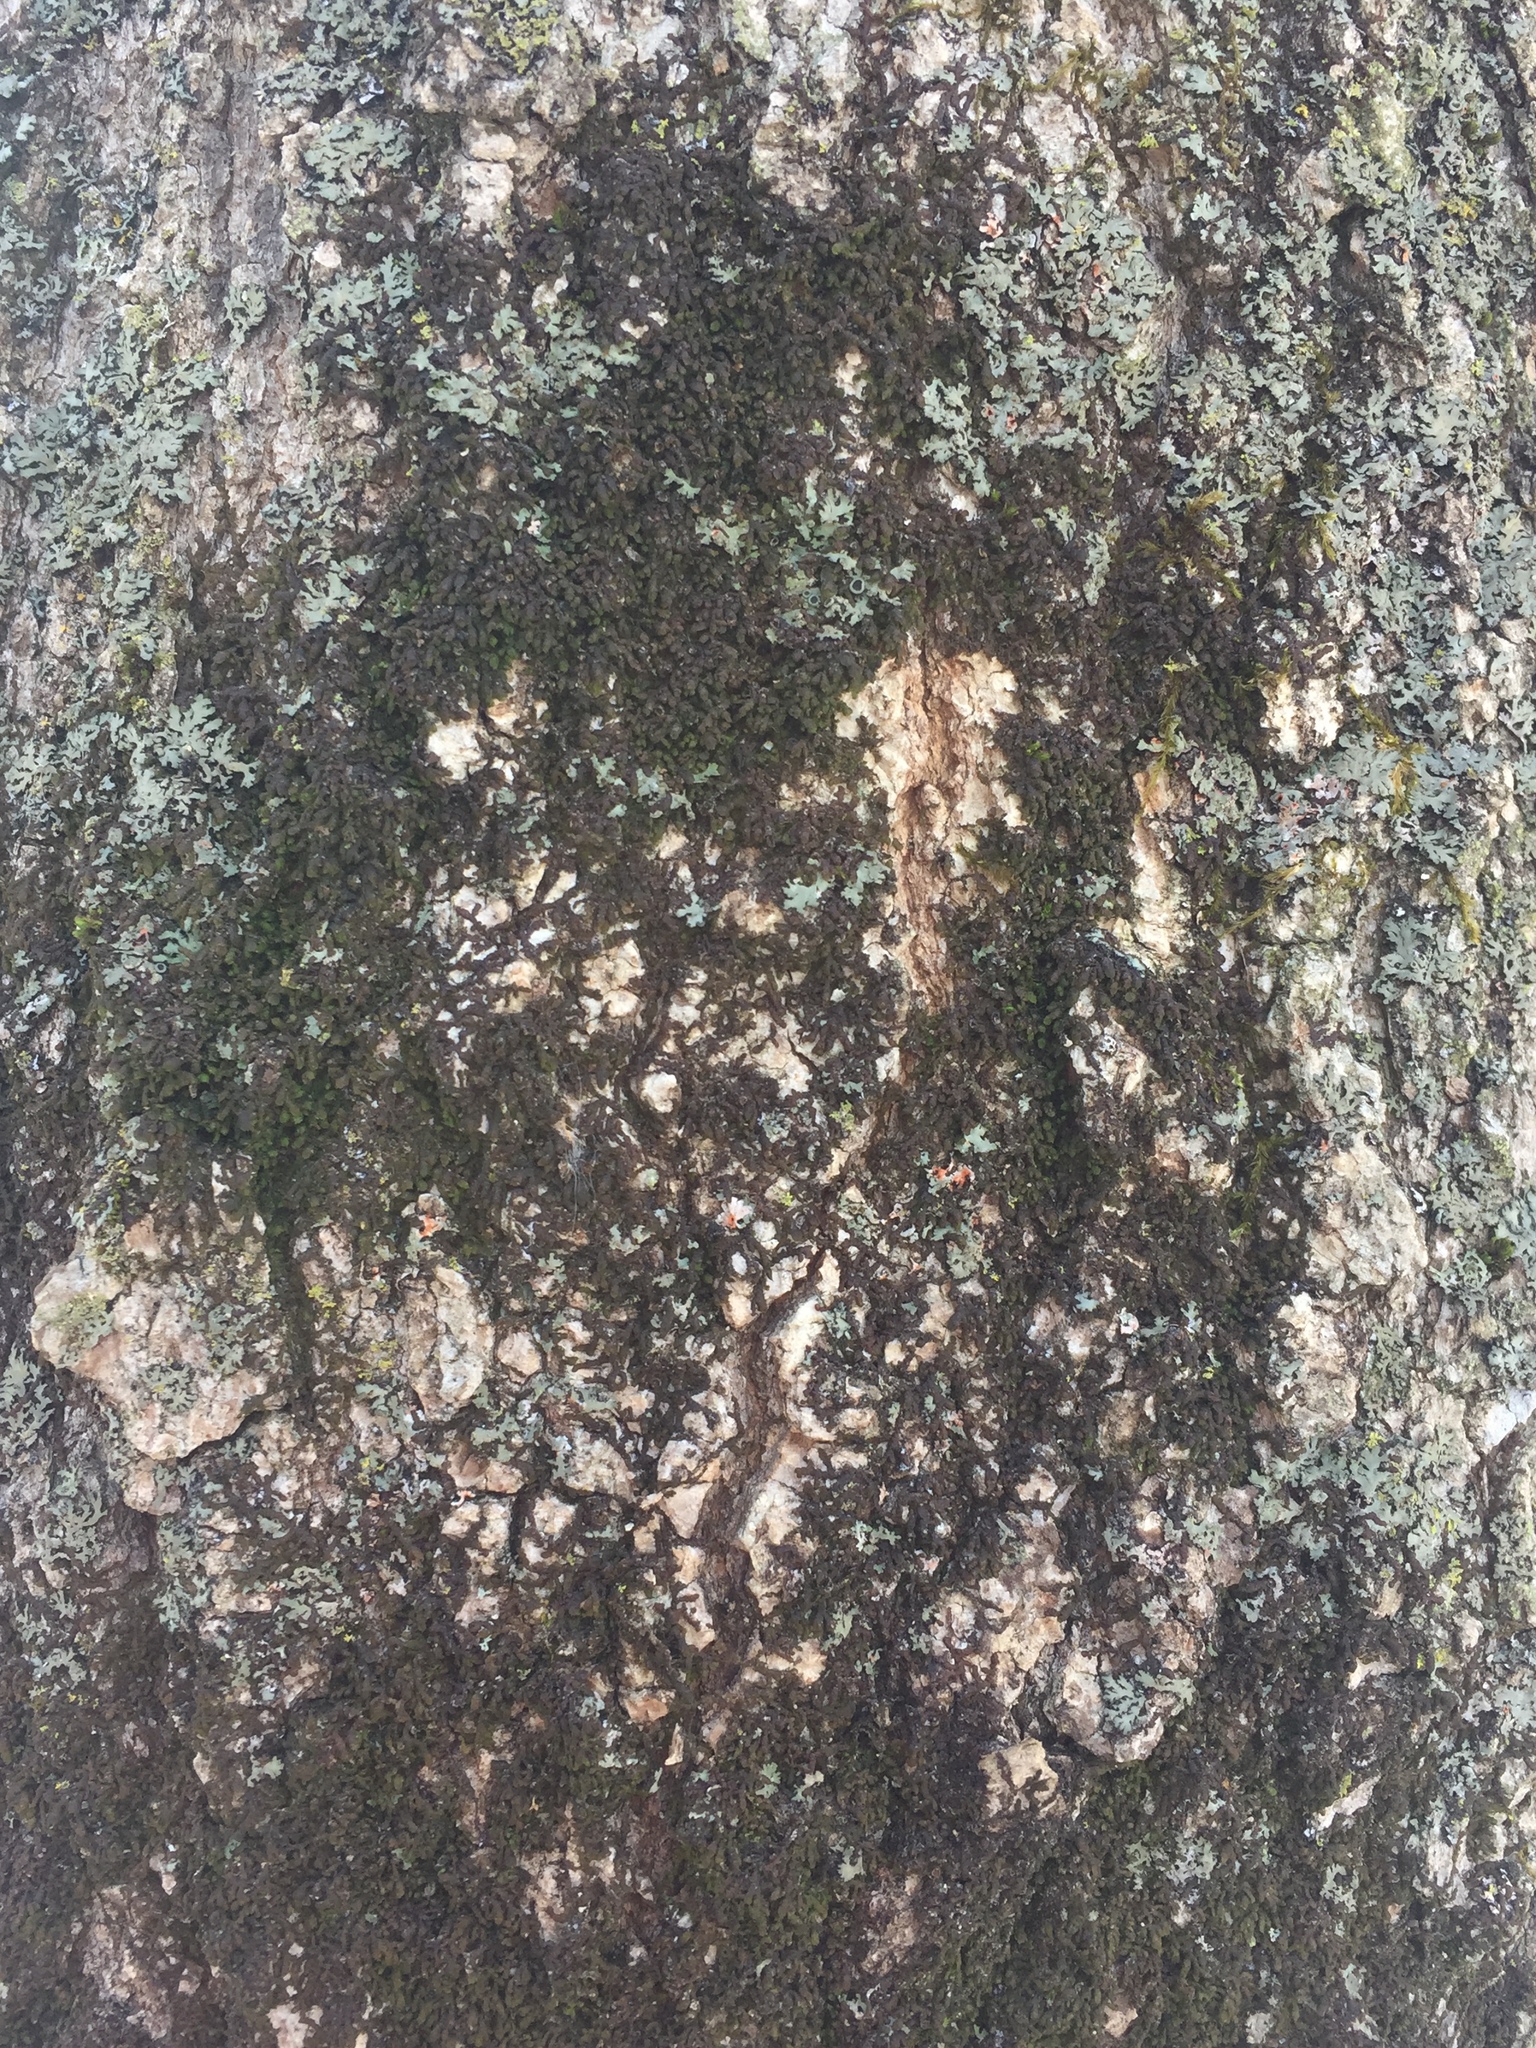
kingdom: Plantae
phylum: Marchantiophyta
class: Jungermanniopsida
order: Porellales
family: Frullaniaceae
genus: Frullania
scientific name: Frullania eboracensis
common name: New york scalewort
